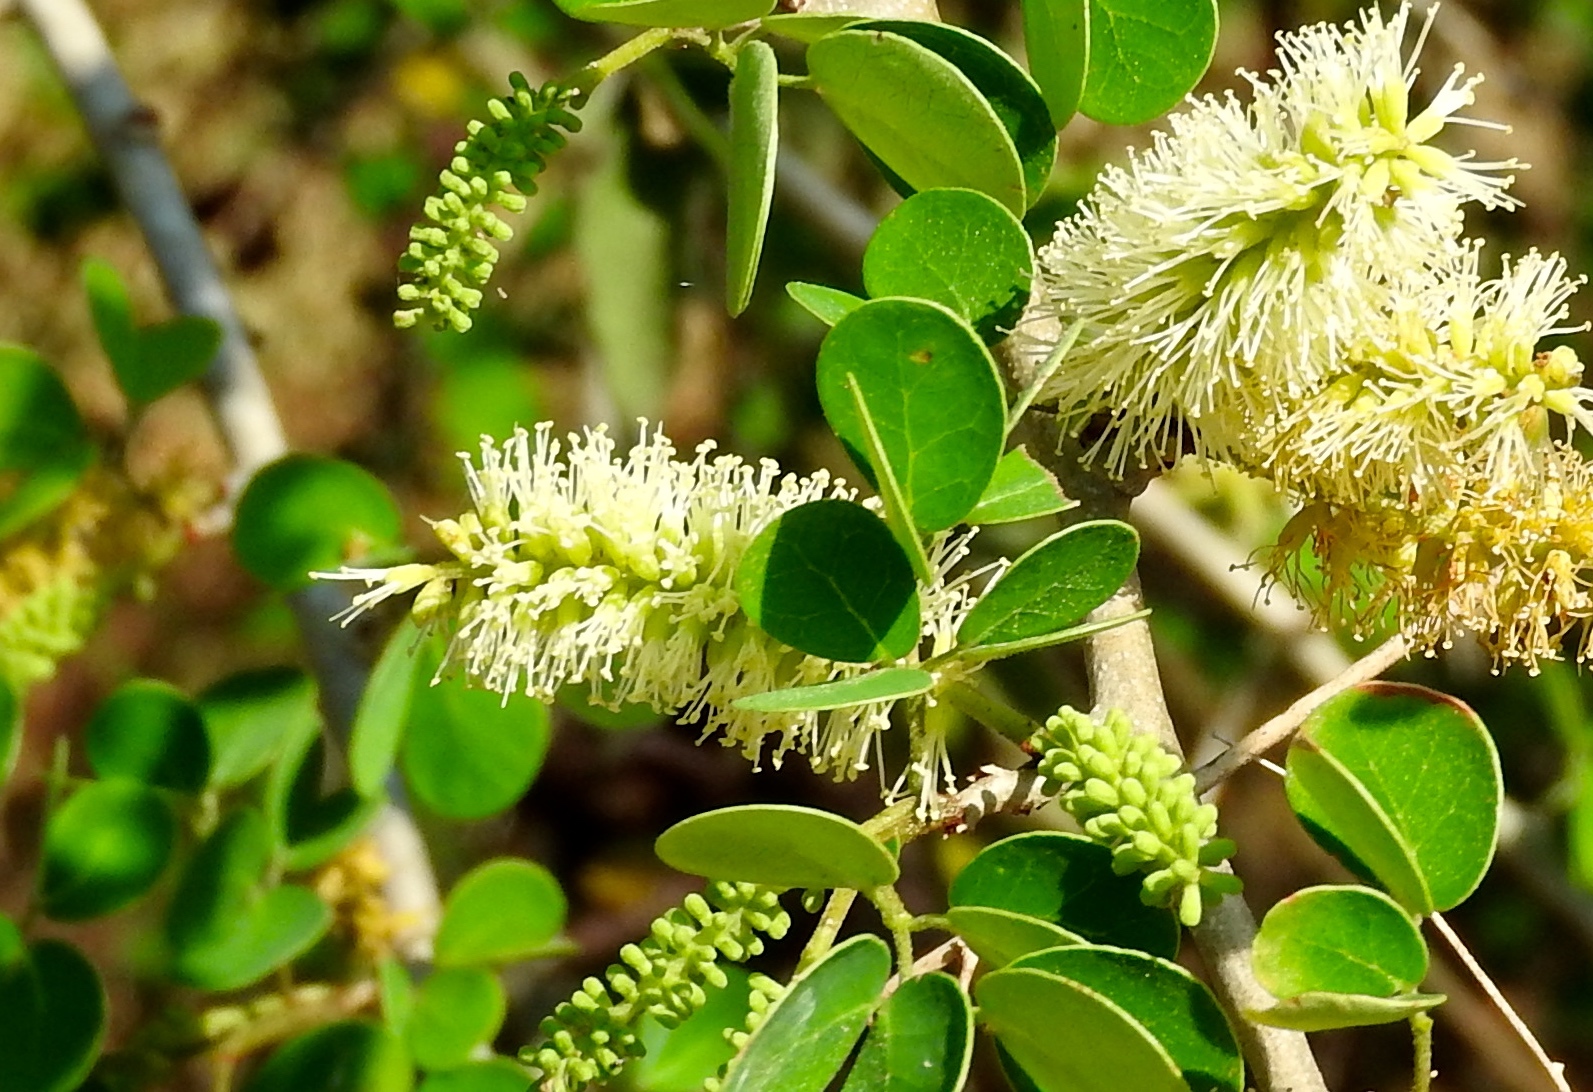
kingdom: Plantae
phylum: Tracheophyta
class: Magnoliopsida
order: Fabales
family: Fabaceae
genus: Microlobius
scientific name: Microlobius foetidus
